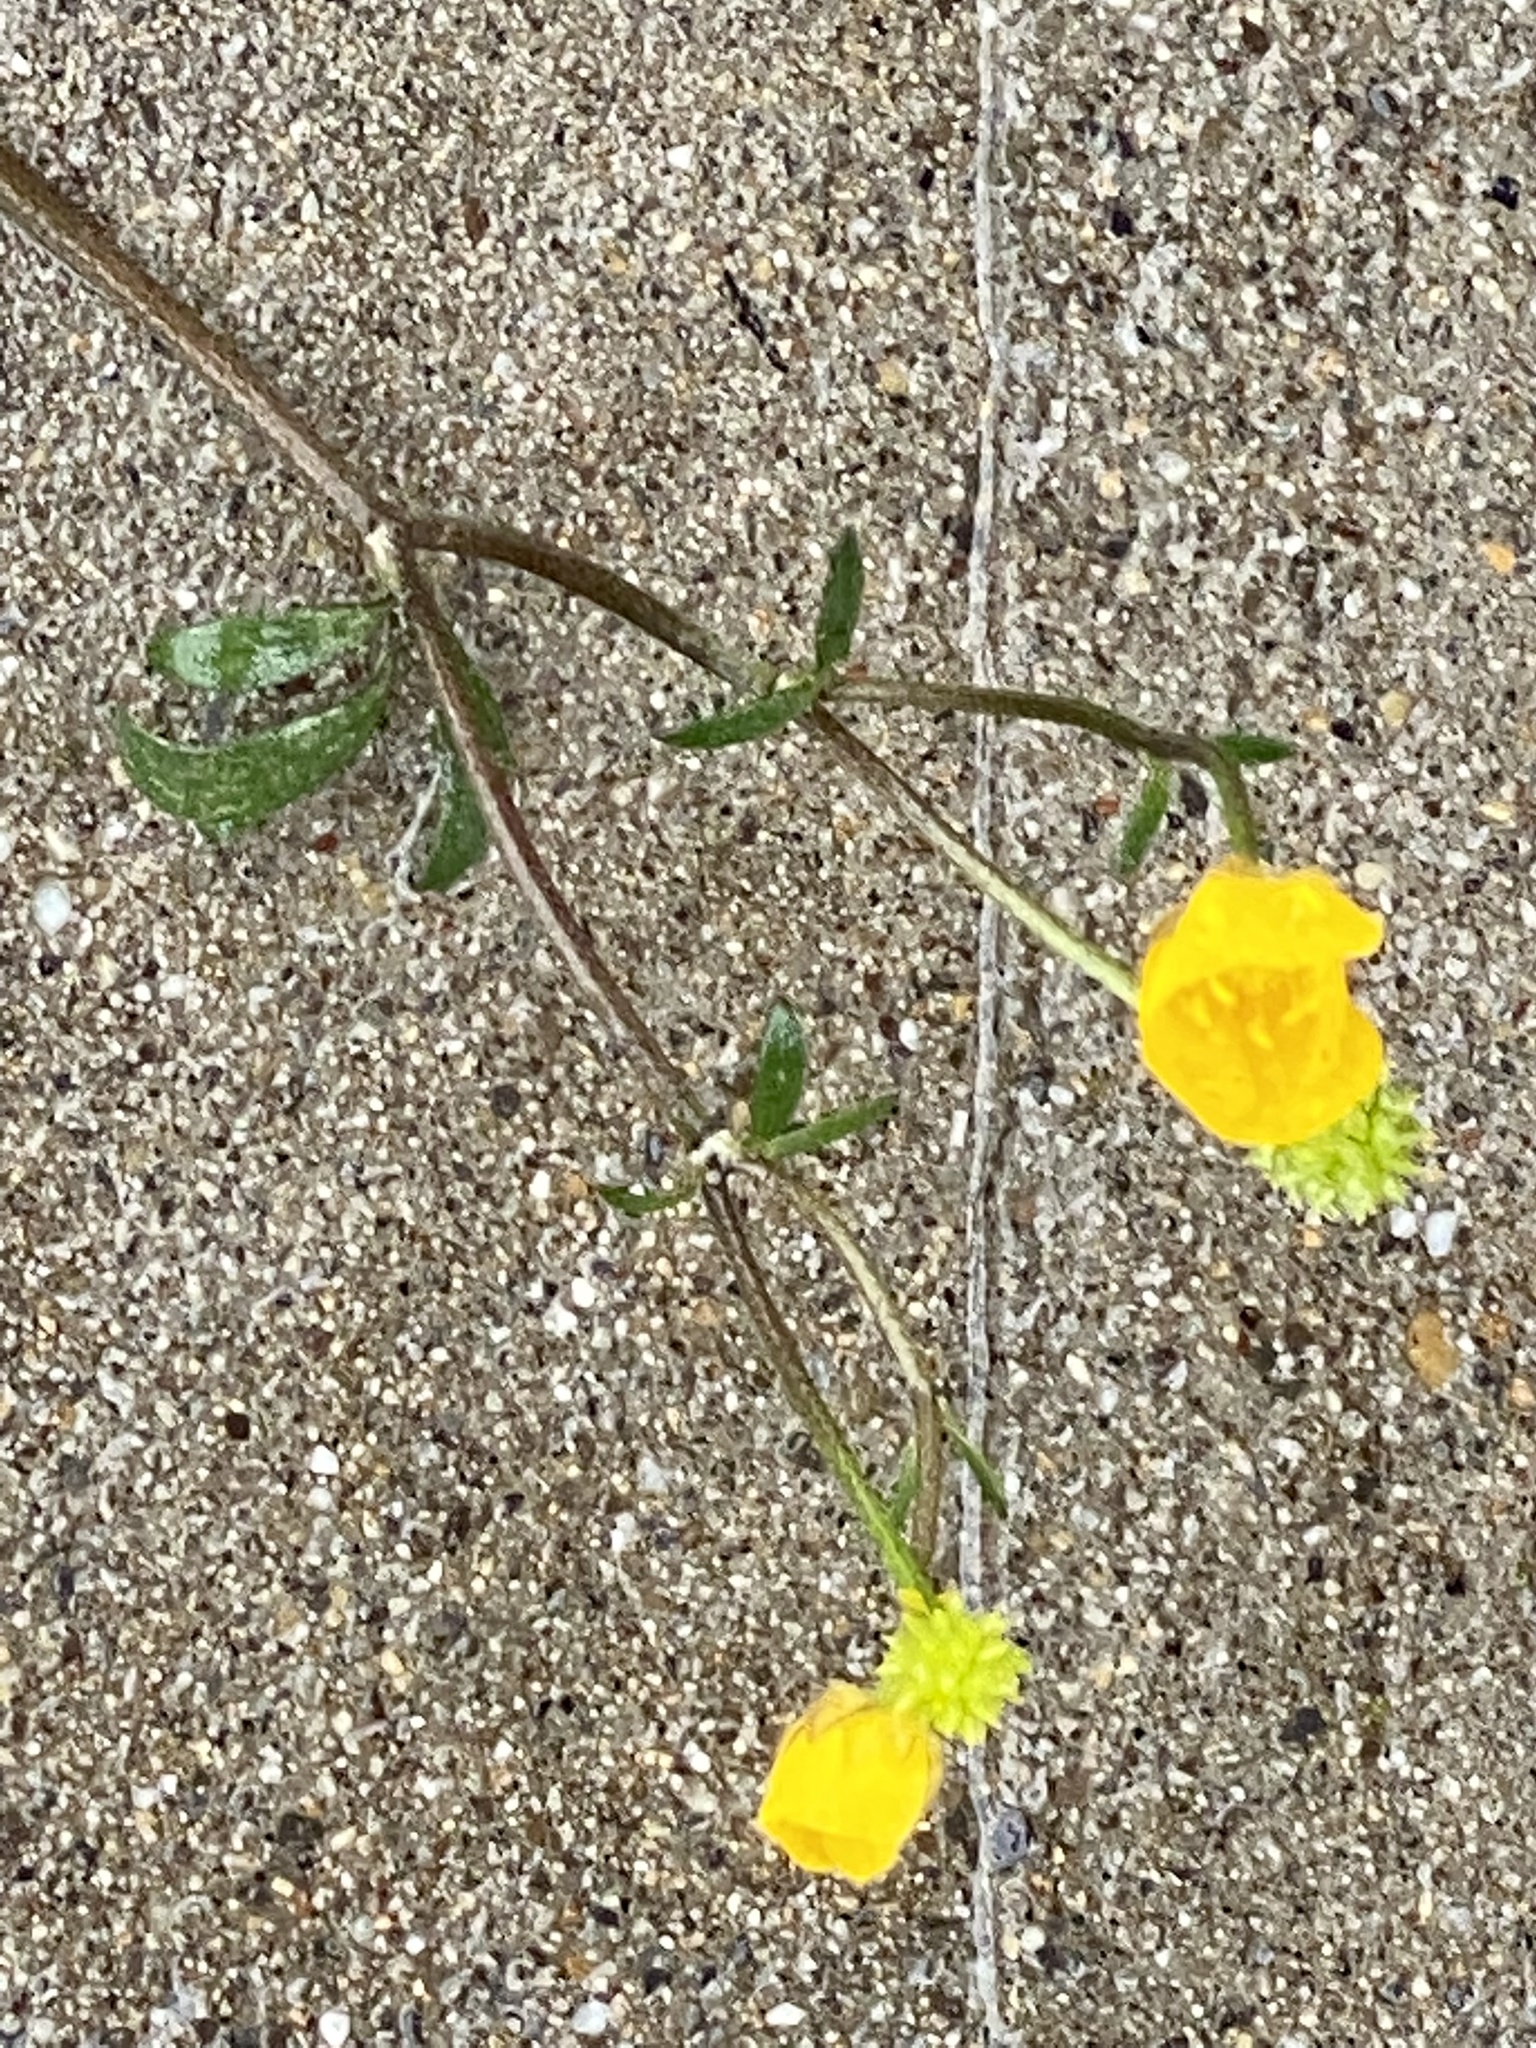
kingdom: Plantae
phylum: Tracheophyta
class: Magnoliopsida
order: Ranunculales
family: Ranunculaceae
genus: Ranunculus
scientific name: Ranunculus repens
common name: Creeping buttercup
